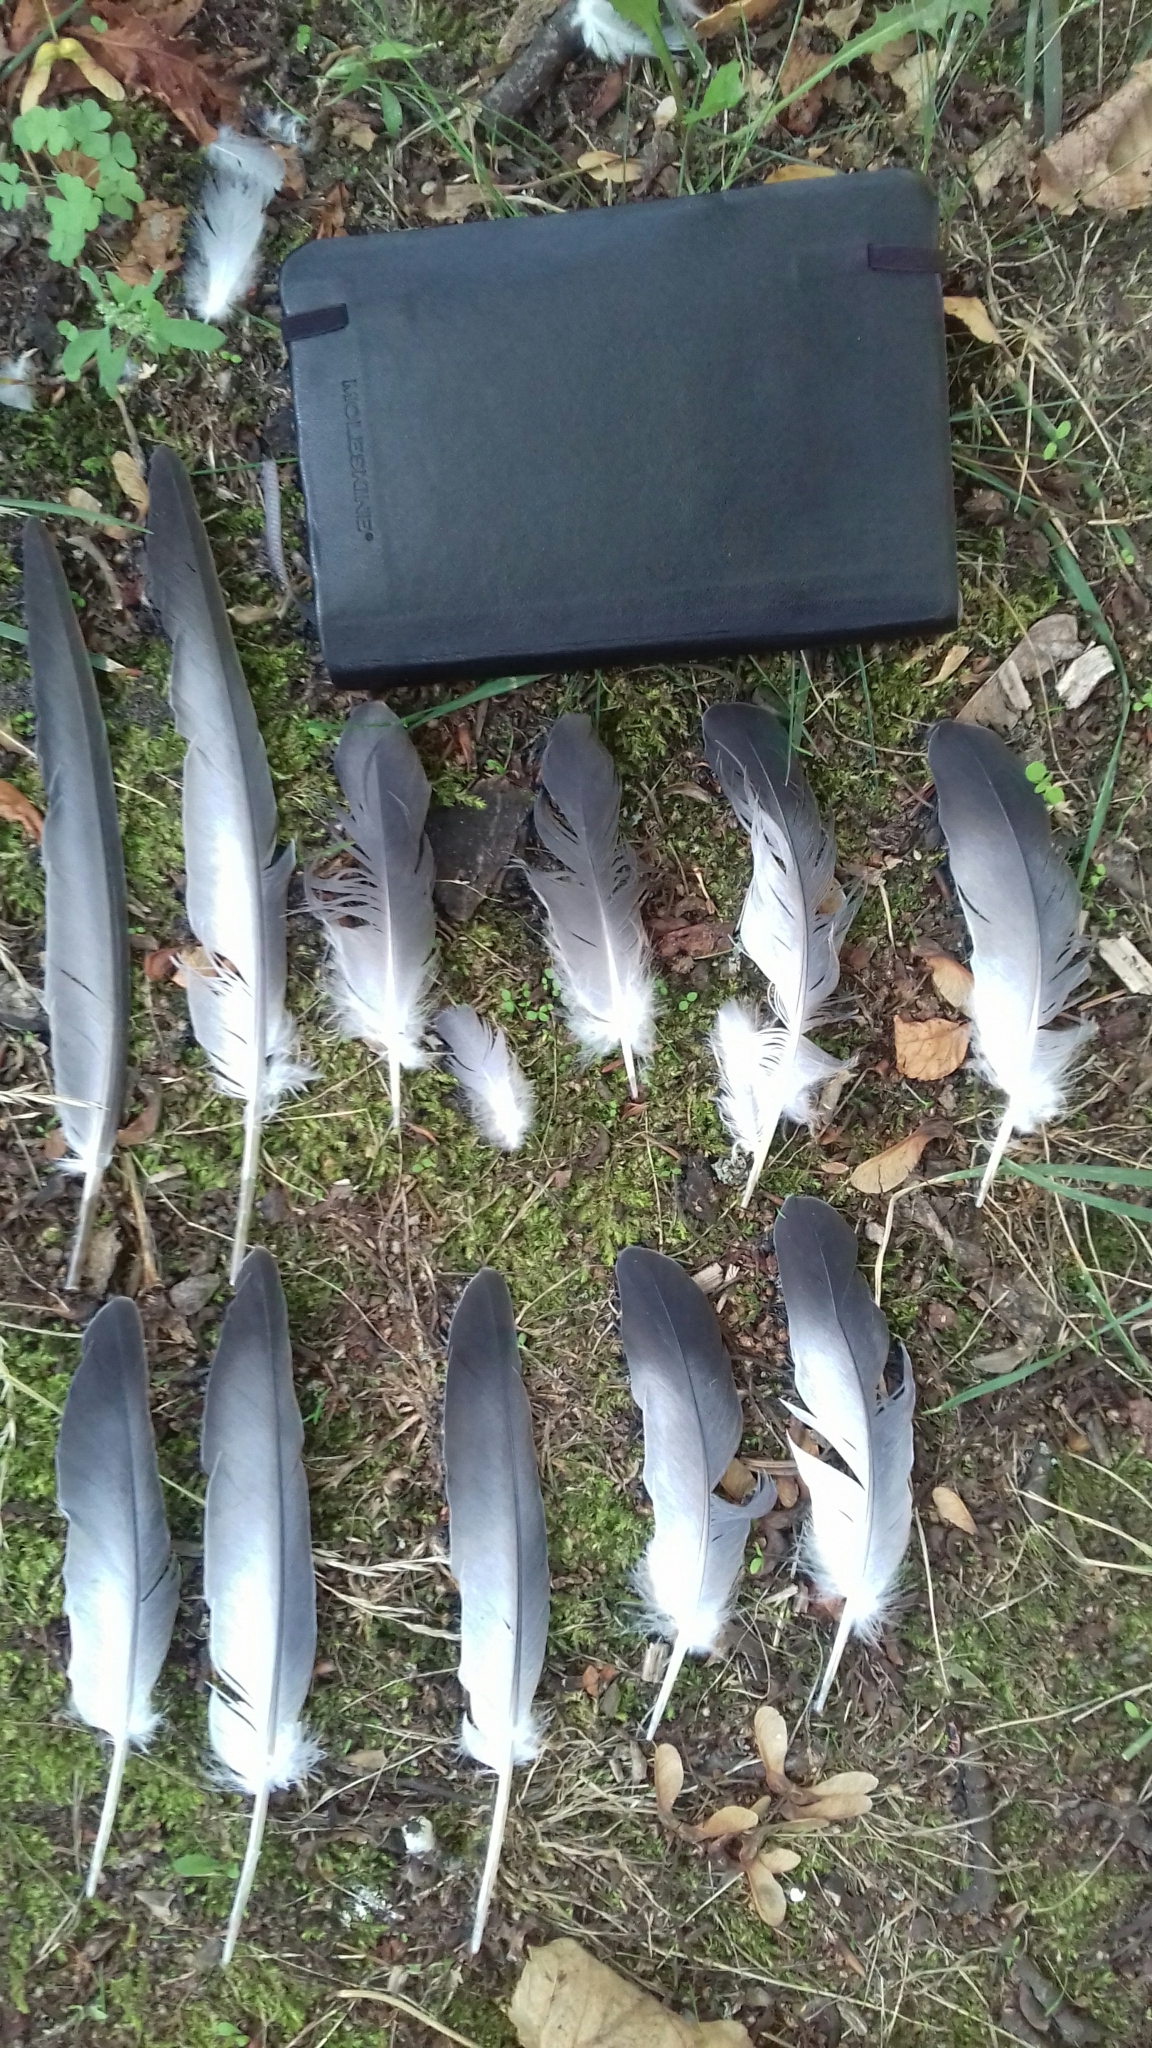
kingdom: Animalia
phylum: Chordata
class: Aves
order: Columbiformes
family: Columbidae
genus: Columba
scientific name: Columba livia
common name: Rock pigeon
